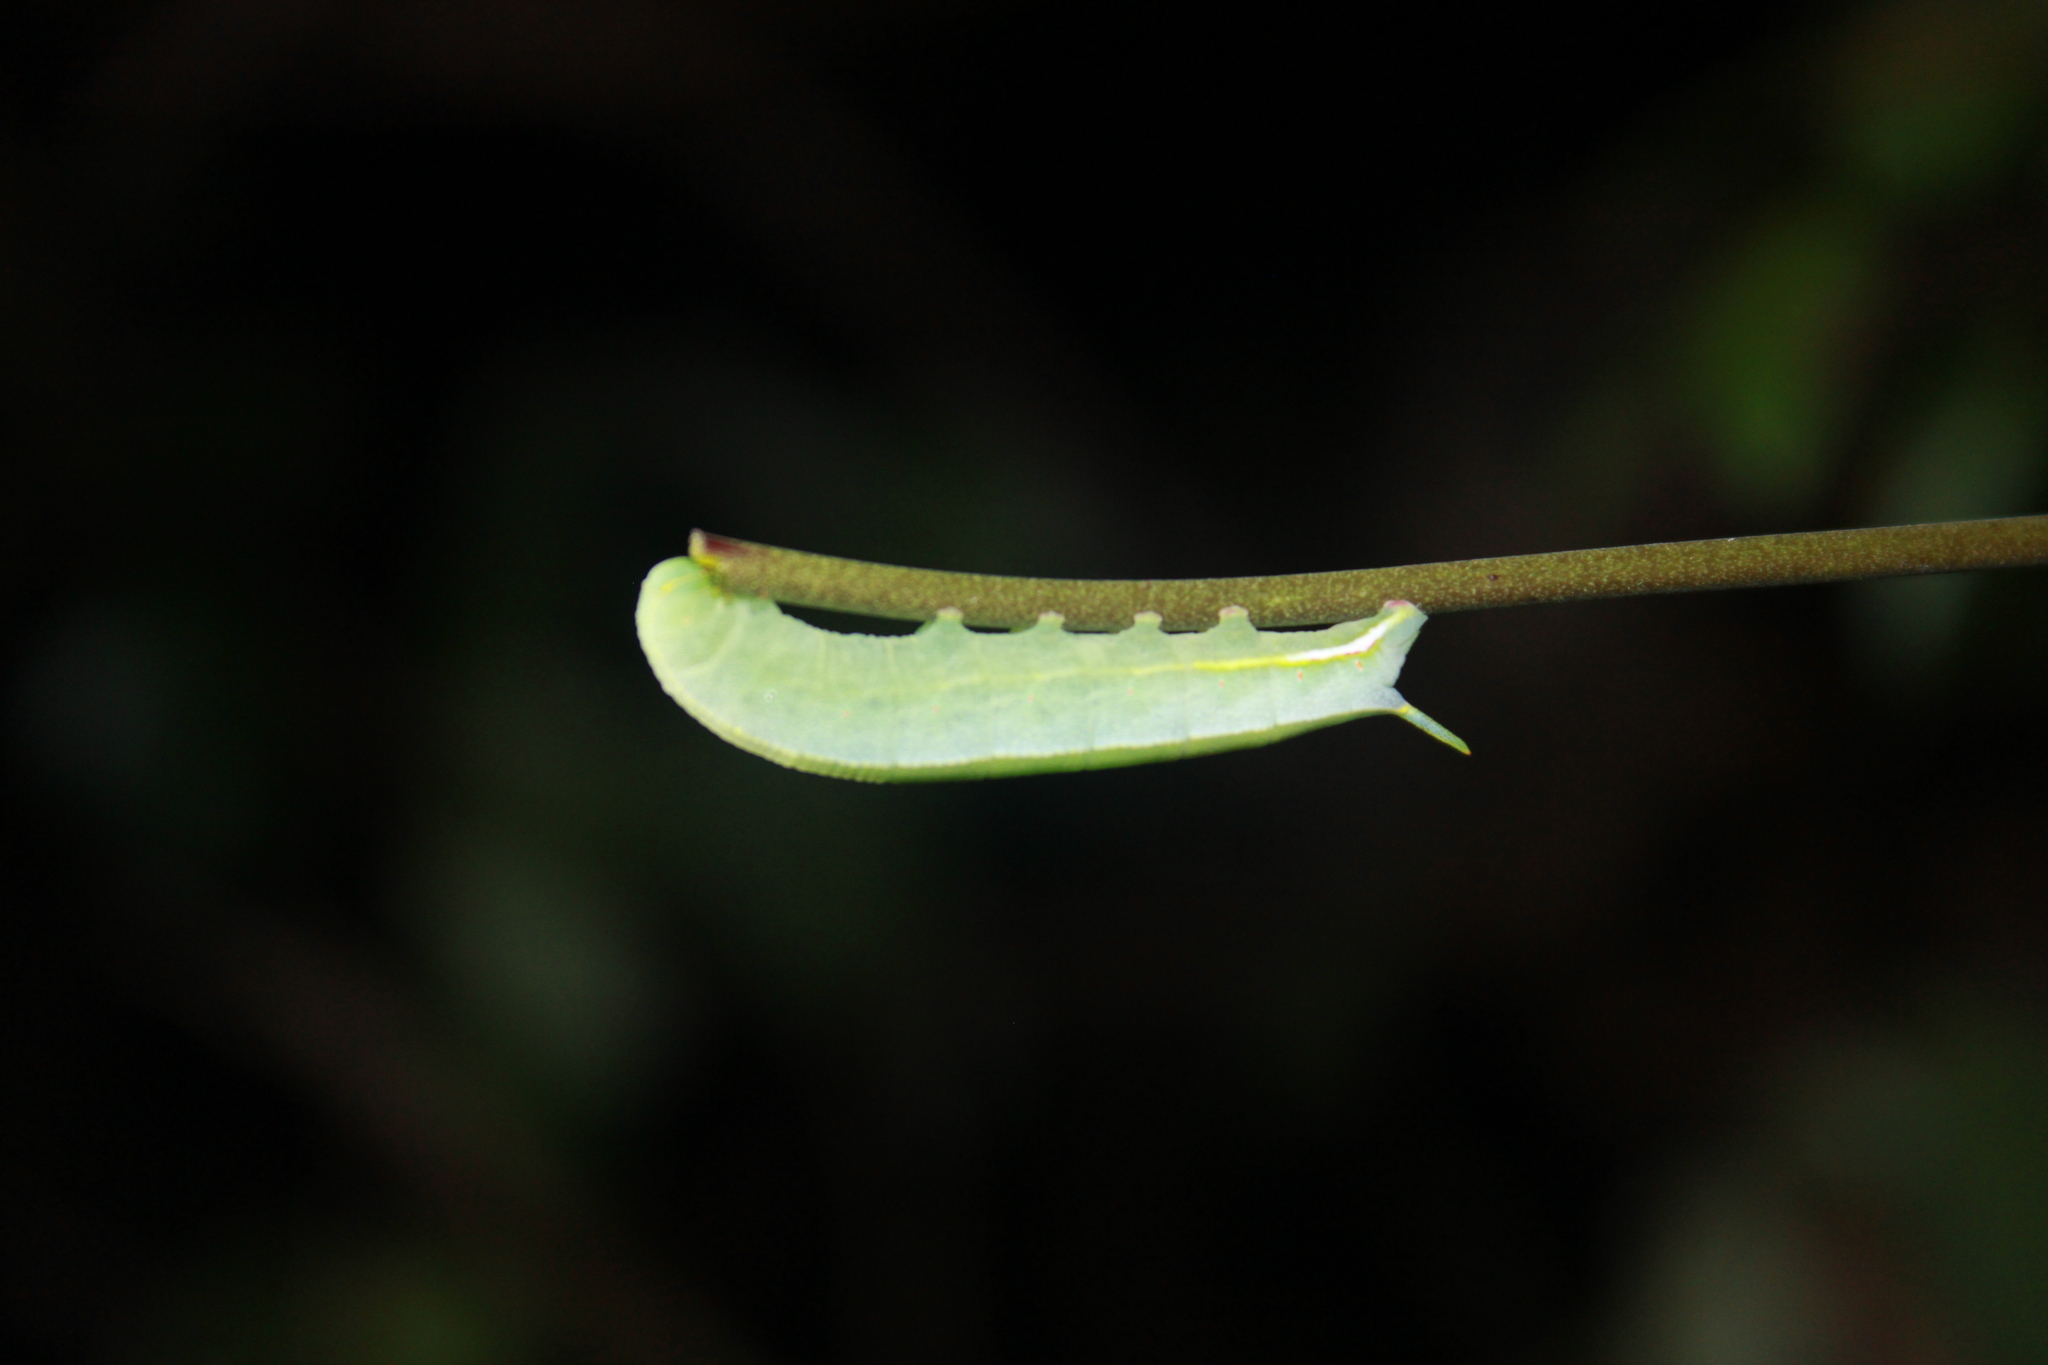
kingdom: Animalia
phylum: Arthropoda
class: Insecta
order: Lepidoptera
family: Sphingidae
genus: Cautethia
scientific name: Cautethia grotei
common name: Grote's sphinx
